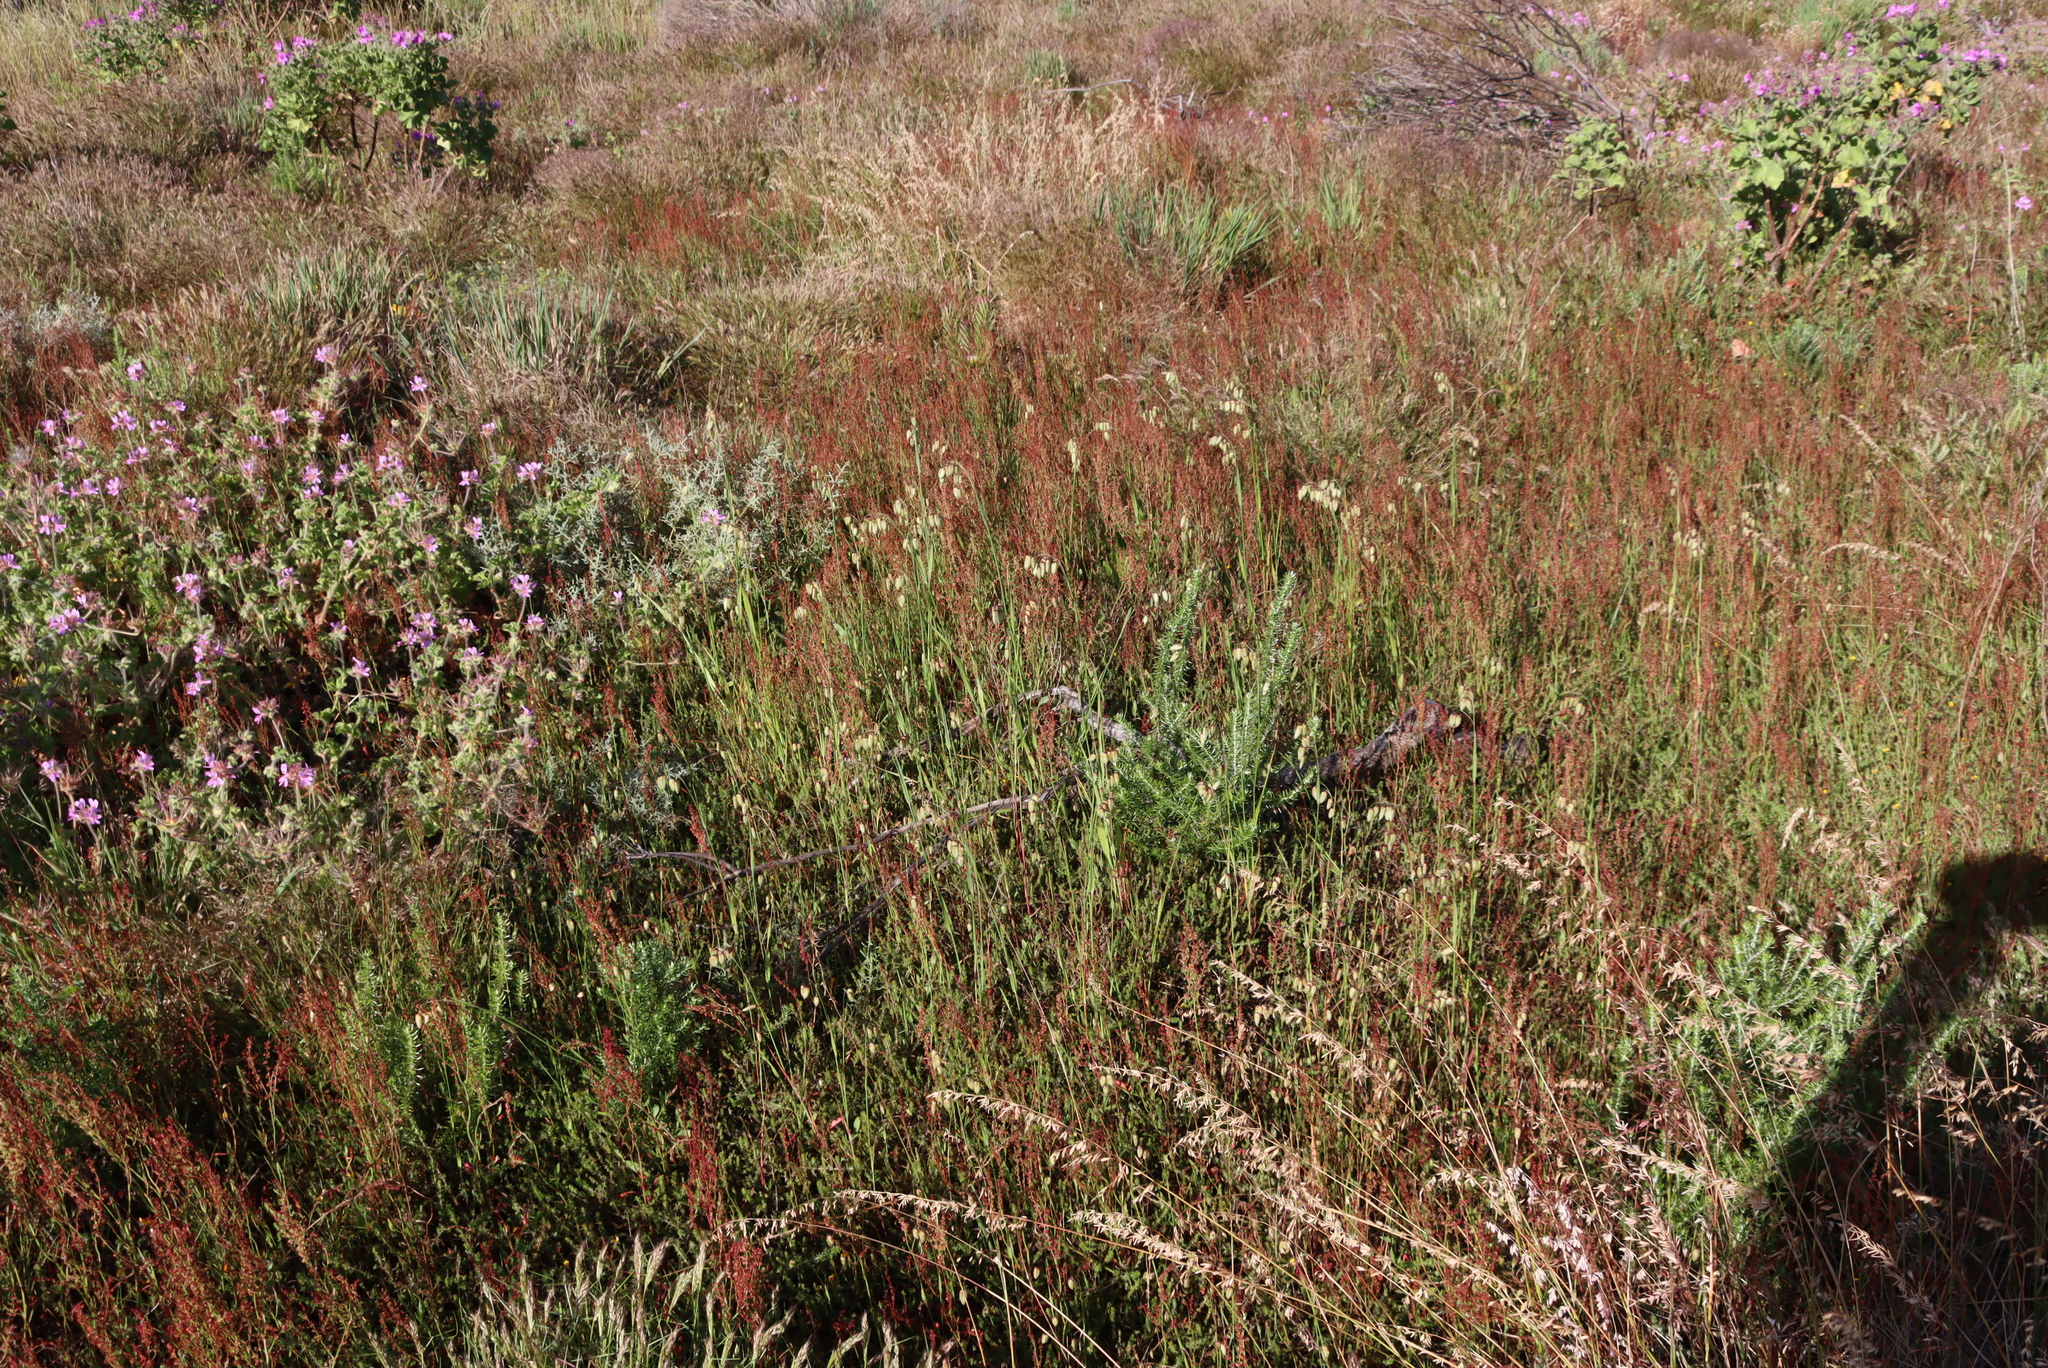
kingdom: Plantae
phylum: Tracheophyta
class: Liliopsida
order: Poales
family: Poaceae
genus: Briza
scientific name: Briza maxima
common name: Big quakinggrass
